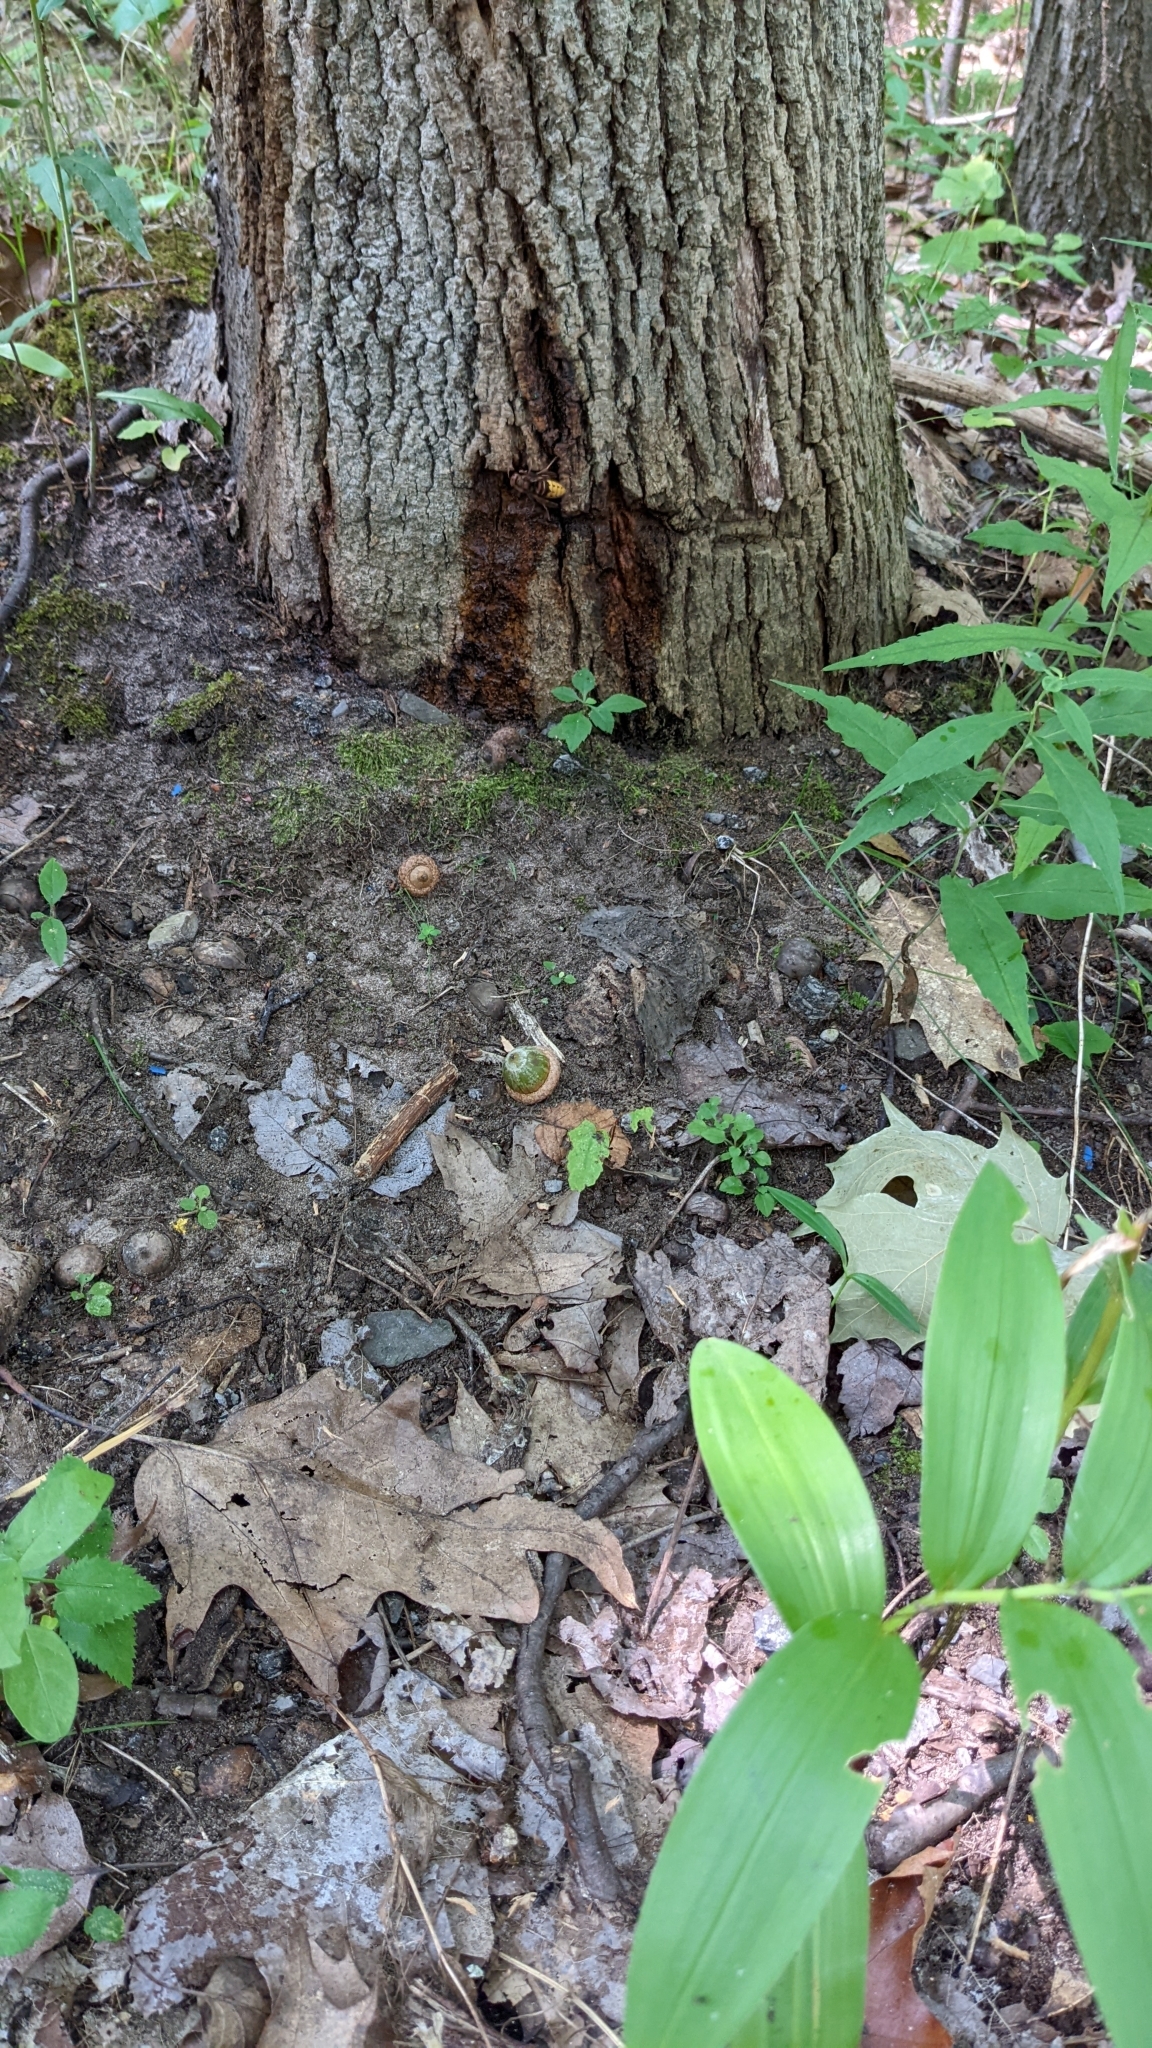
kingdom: Animalia
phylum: Arthropoda
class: Insecta
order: Hymenoptera
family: Vespidae
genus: Vespa
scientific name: Vespa crabro
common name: Hornet
